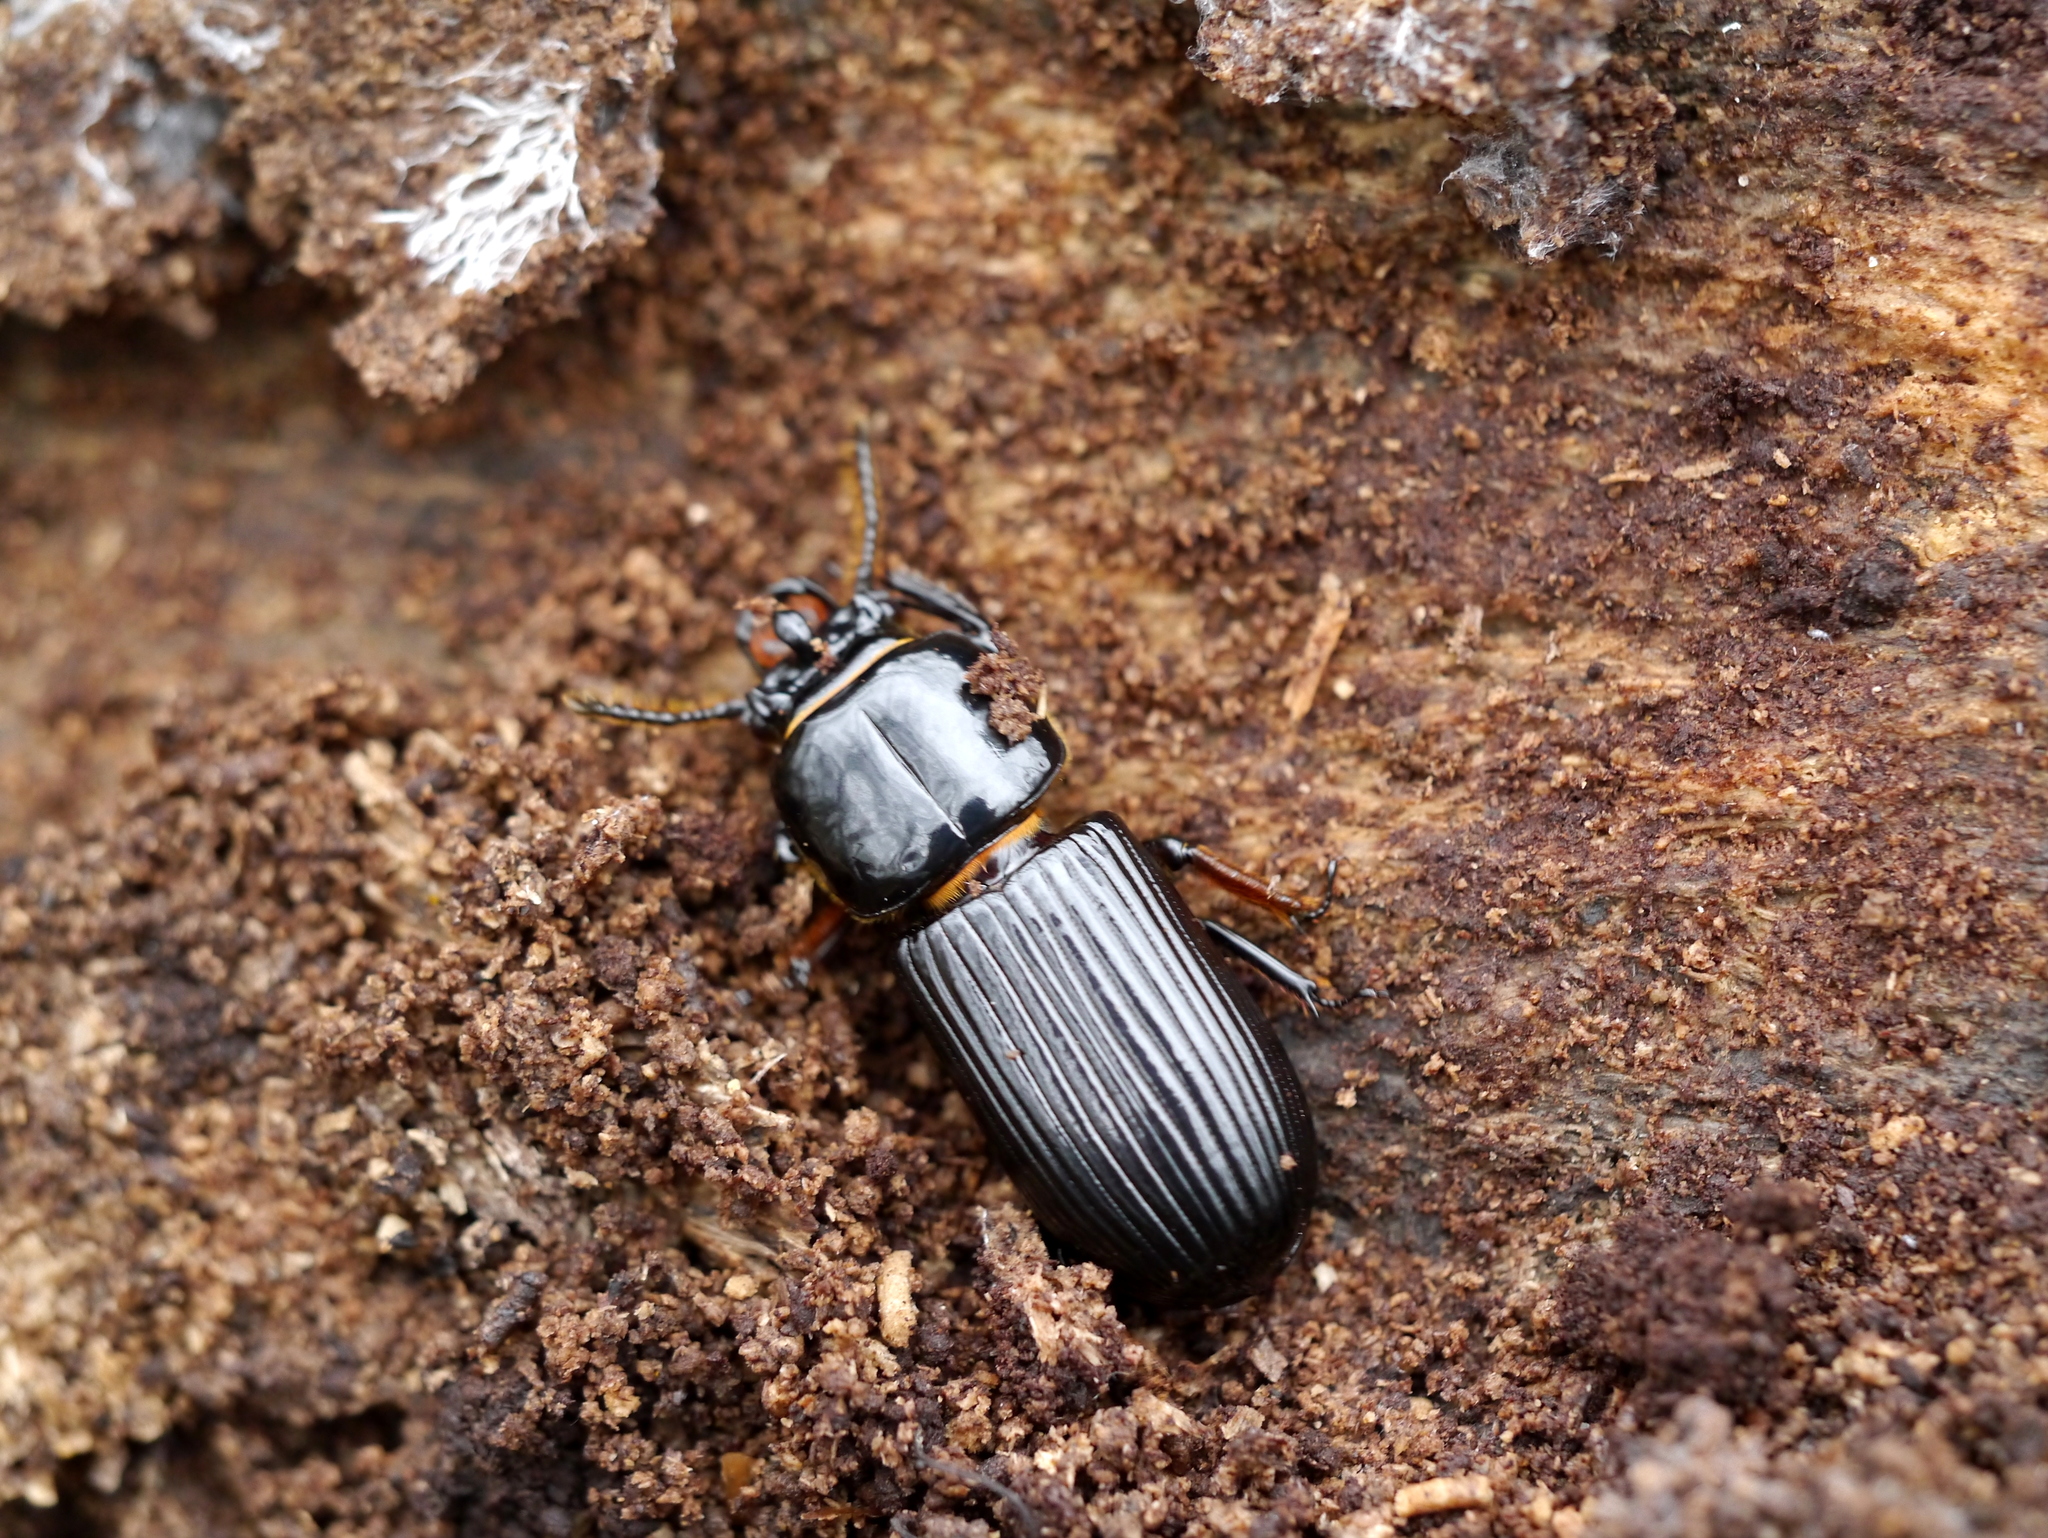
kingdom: Animalia
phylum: Arthropoda
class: Insecta
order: Coleoptera
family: Passalidae
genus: Odontotaenius
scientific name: Odontotaenius disjunctus
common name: Patent leather beetle
